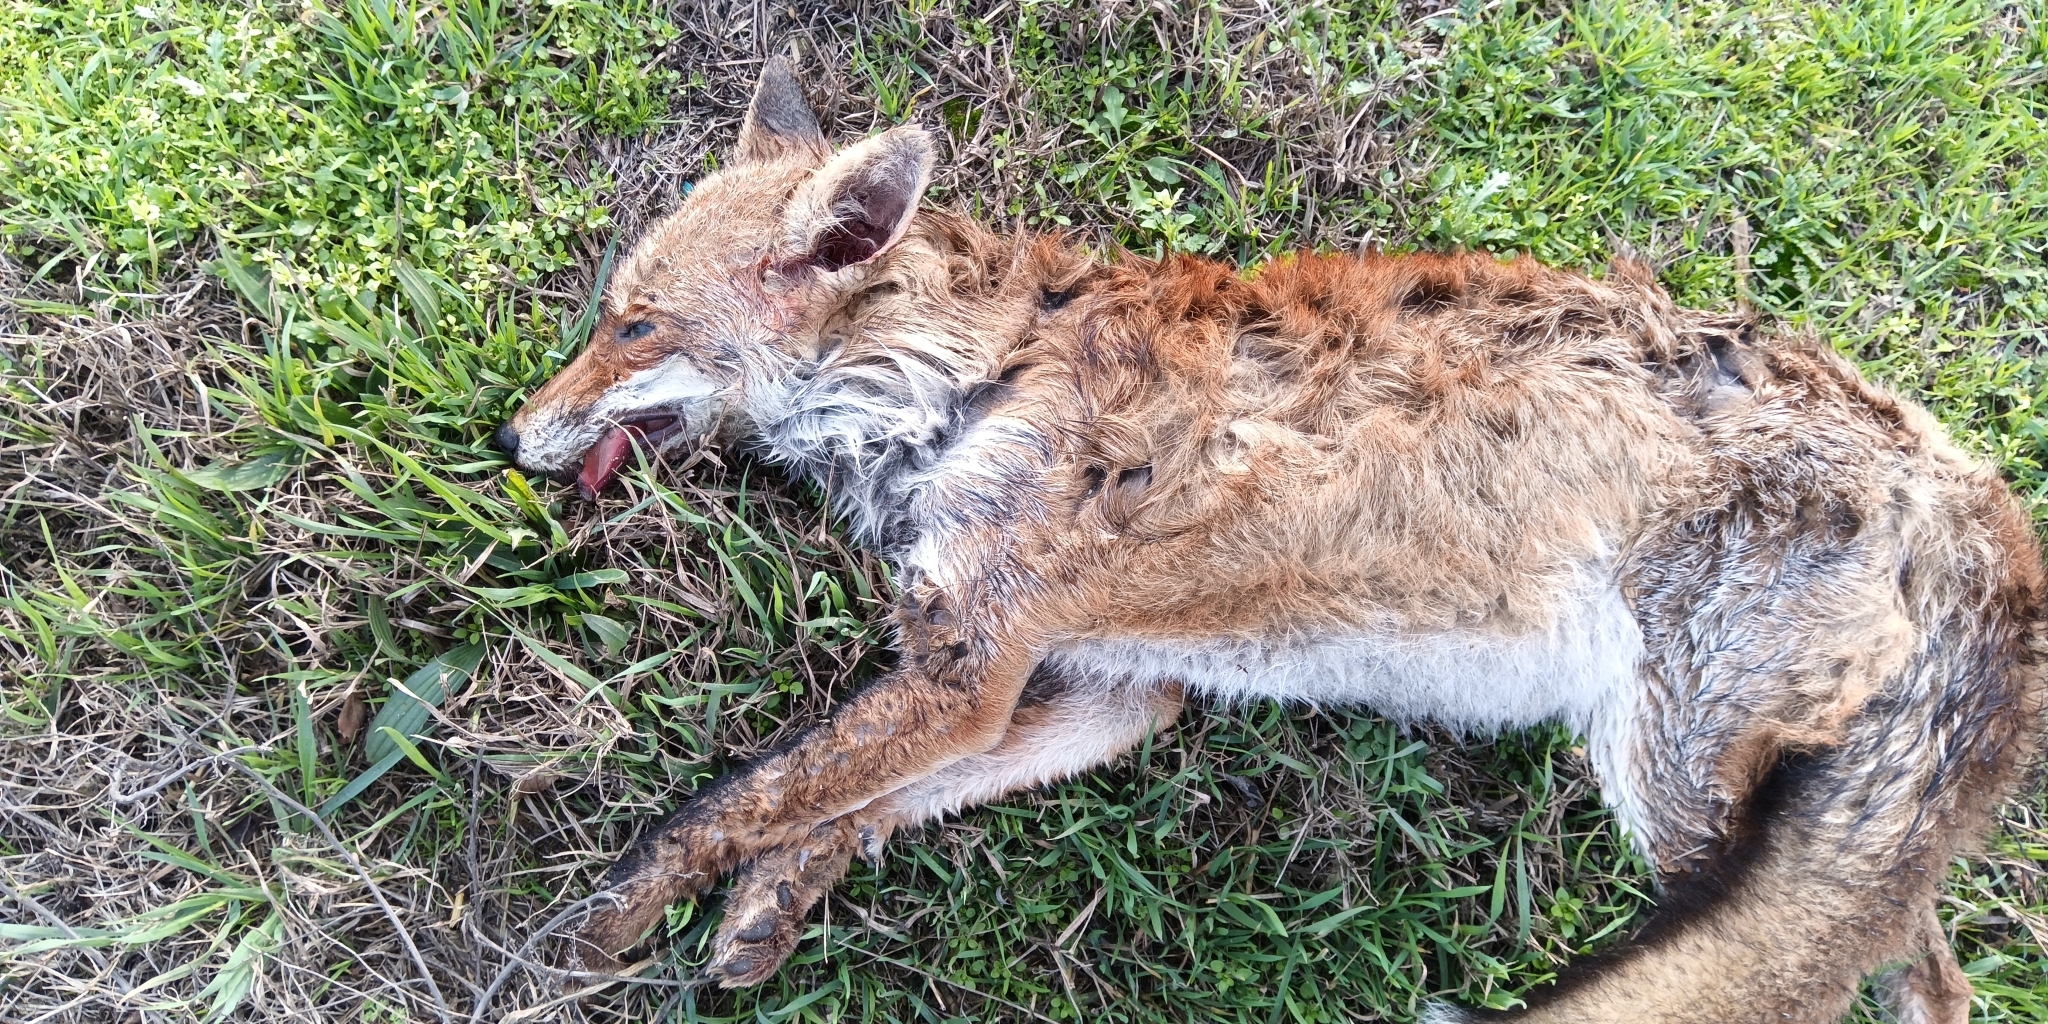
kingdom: Animalia
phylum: Chordata
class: Mammalia
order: Carnivora
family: Canidae
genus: Vulpes
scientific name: Vulpes vulpes
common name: Red fox
